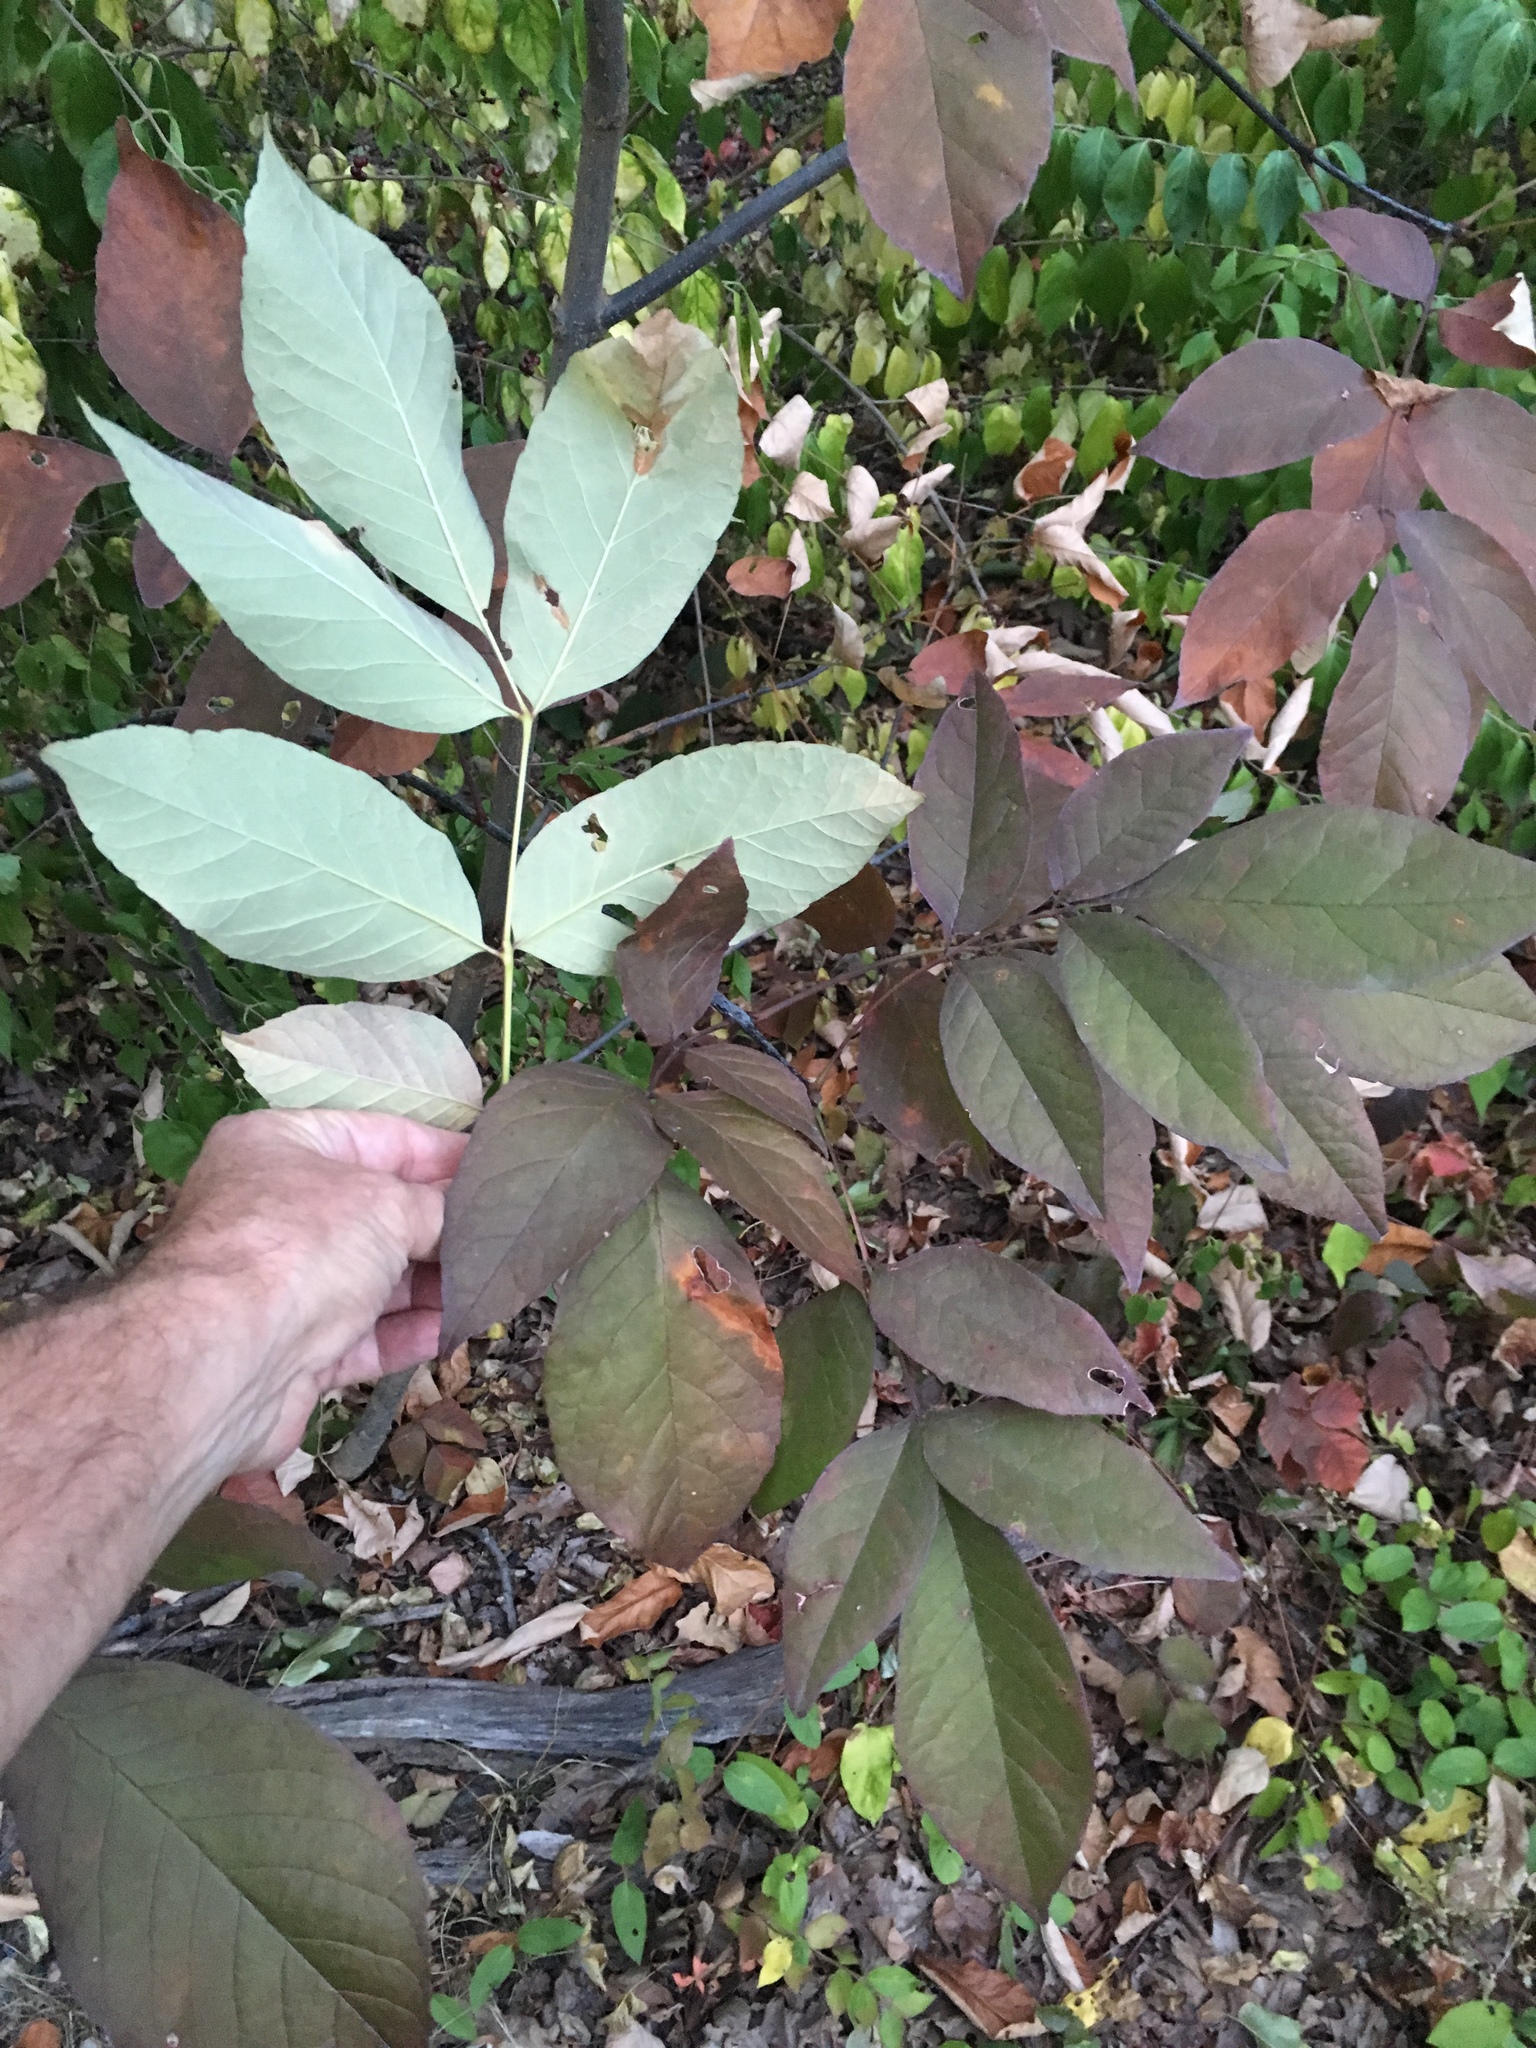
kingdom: Plantae
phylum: Tracheophyta
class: Magnoliopsida
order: Lamiales
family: Oleaceae
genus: Fraxinus
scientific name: Fraxinus americana
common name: White ash
